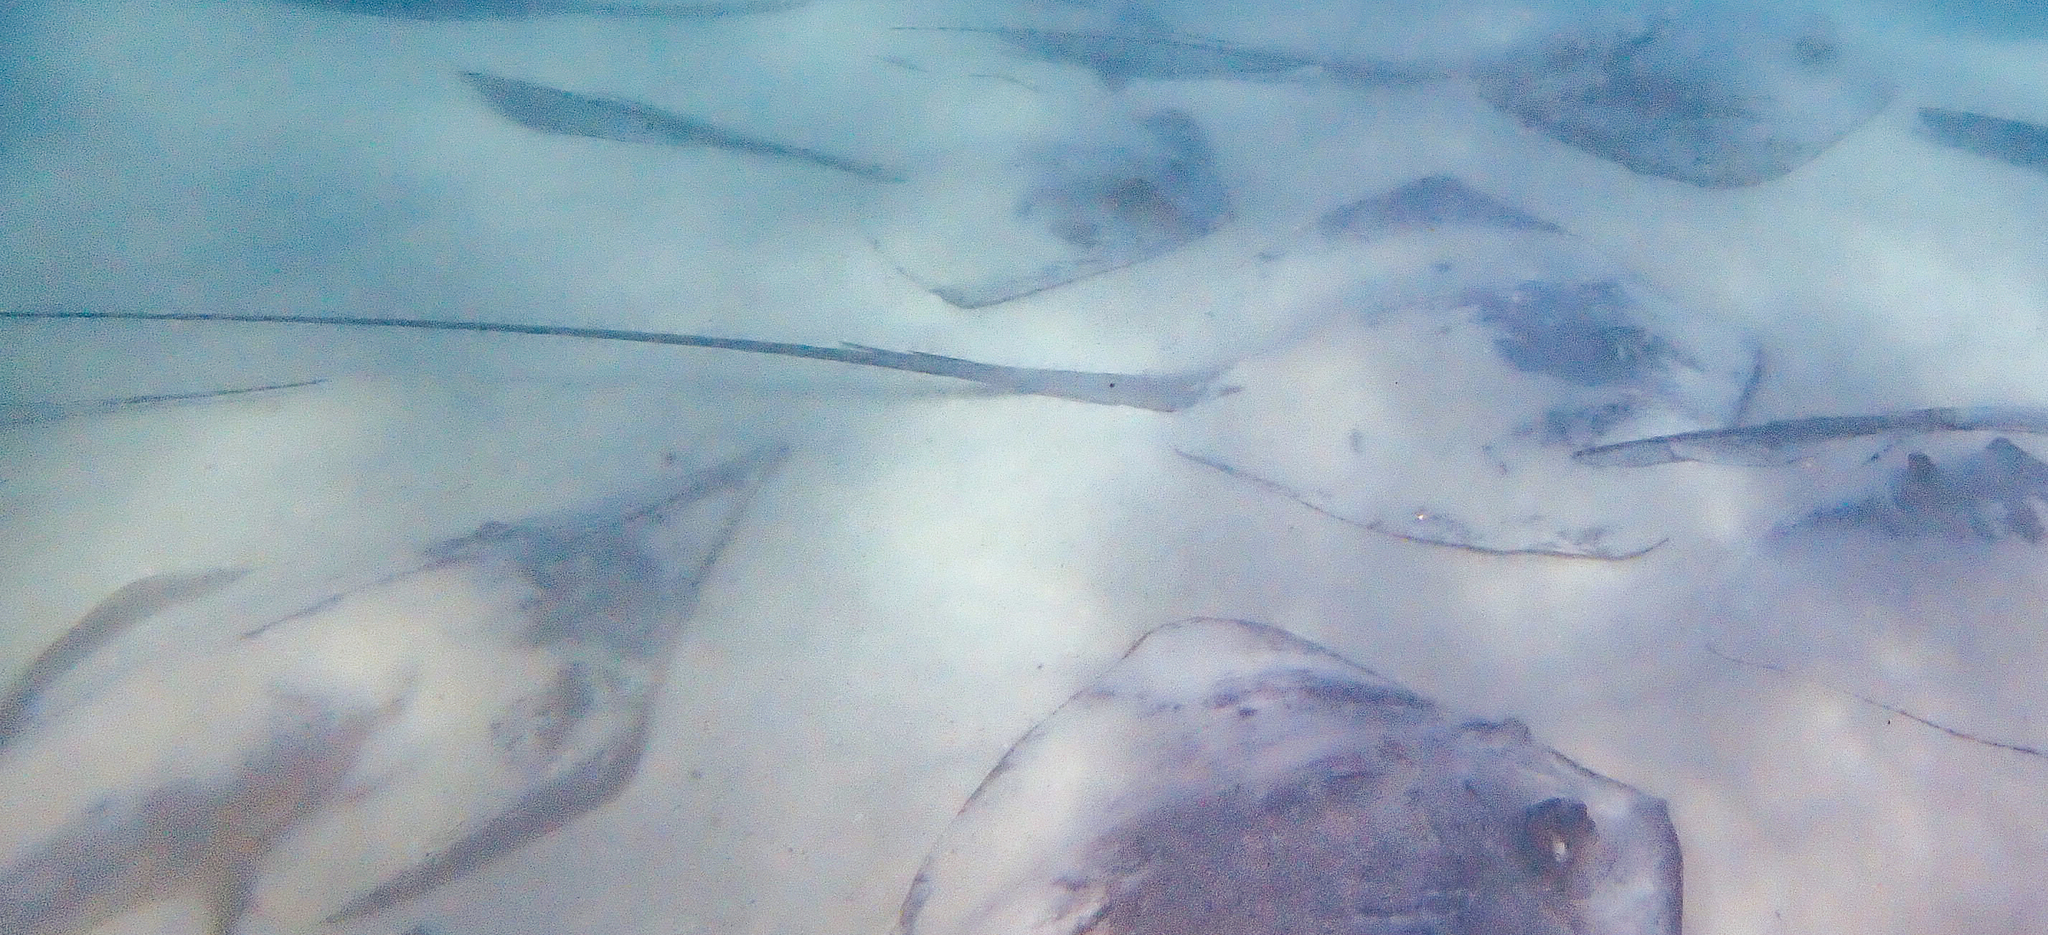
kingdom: Animalia
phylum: Chordata
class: Elasmobranchii
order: Myliobatiformes
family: Dasyatidae
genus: Pateobatis
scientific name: Pateobatis fai
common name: Pink whipray
